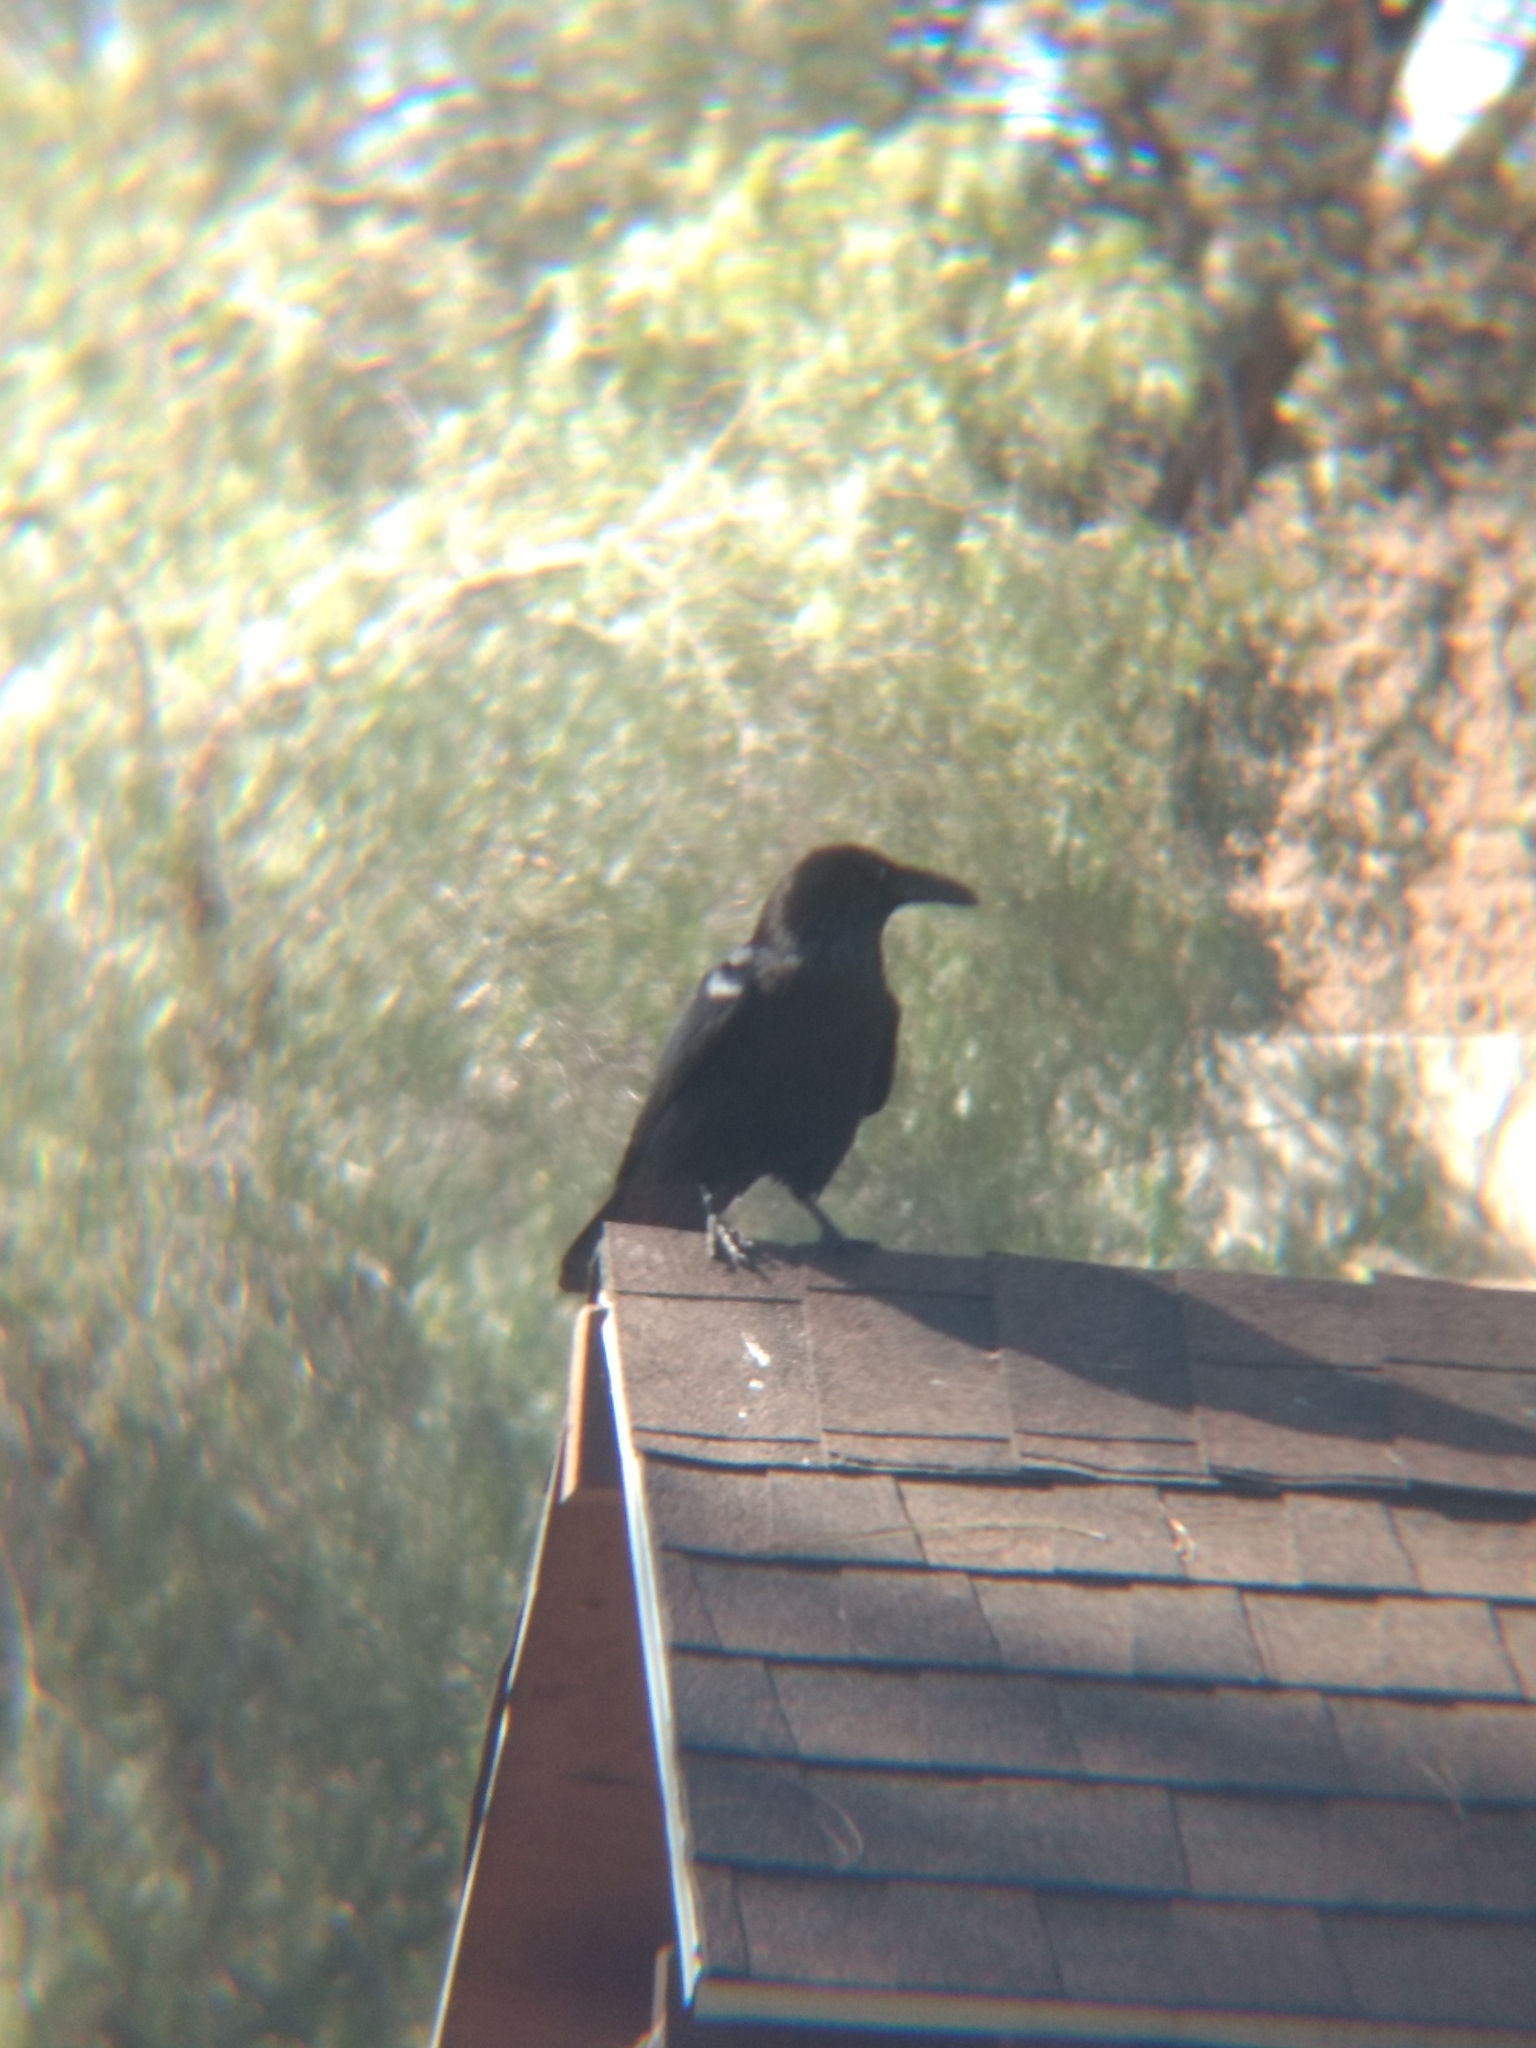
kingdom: Animalia
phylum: Chordata
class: Aves
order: Passeriformes
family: Corvidae
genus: Corvus
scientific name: Corvus corax
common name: Common raven
